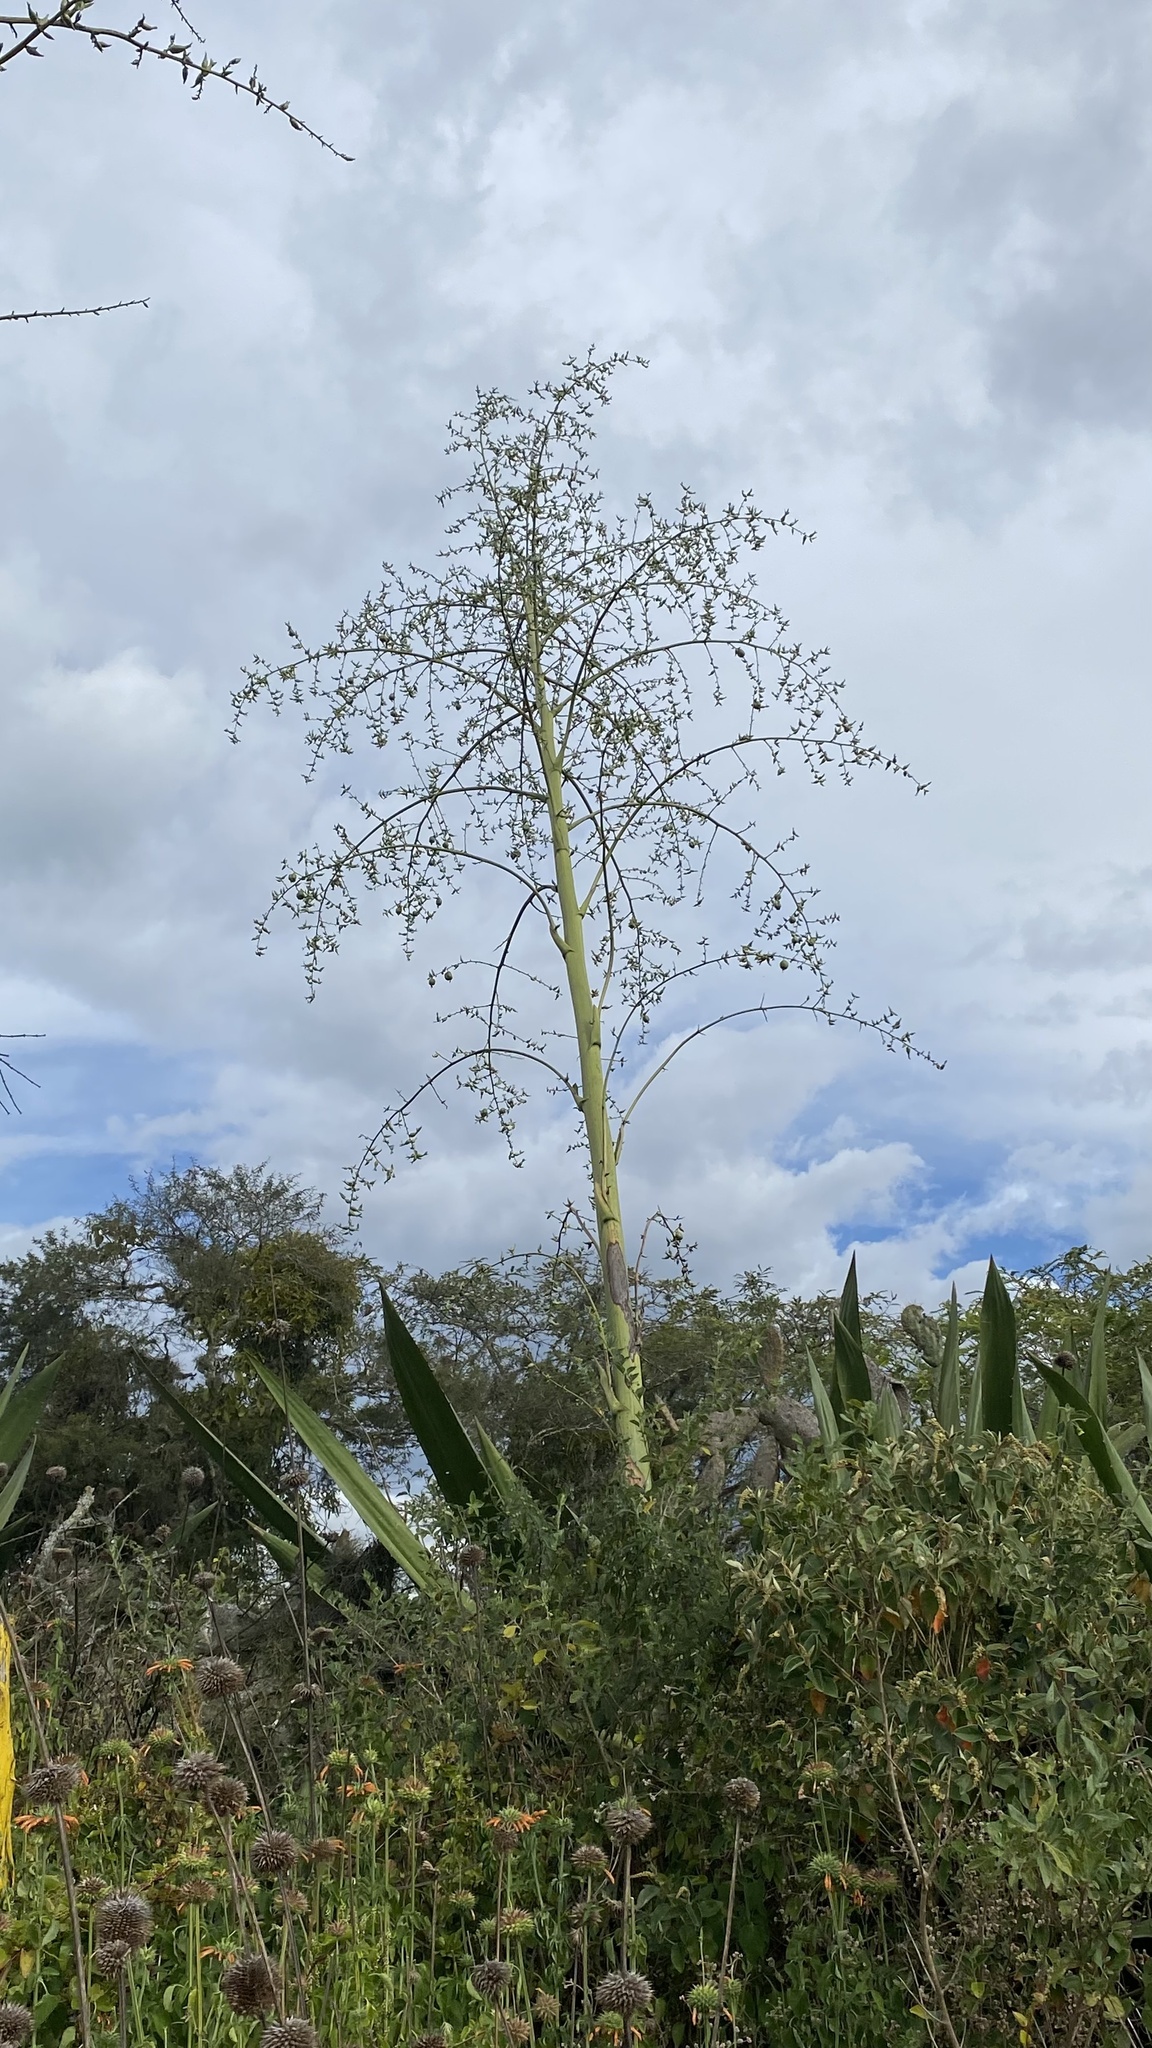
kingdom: Plantae
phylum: Tracheophyta
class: Liliopsida
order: Asparagales
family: Asparagaceae
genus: Furcraea
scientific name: Furcraea andina
